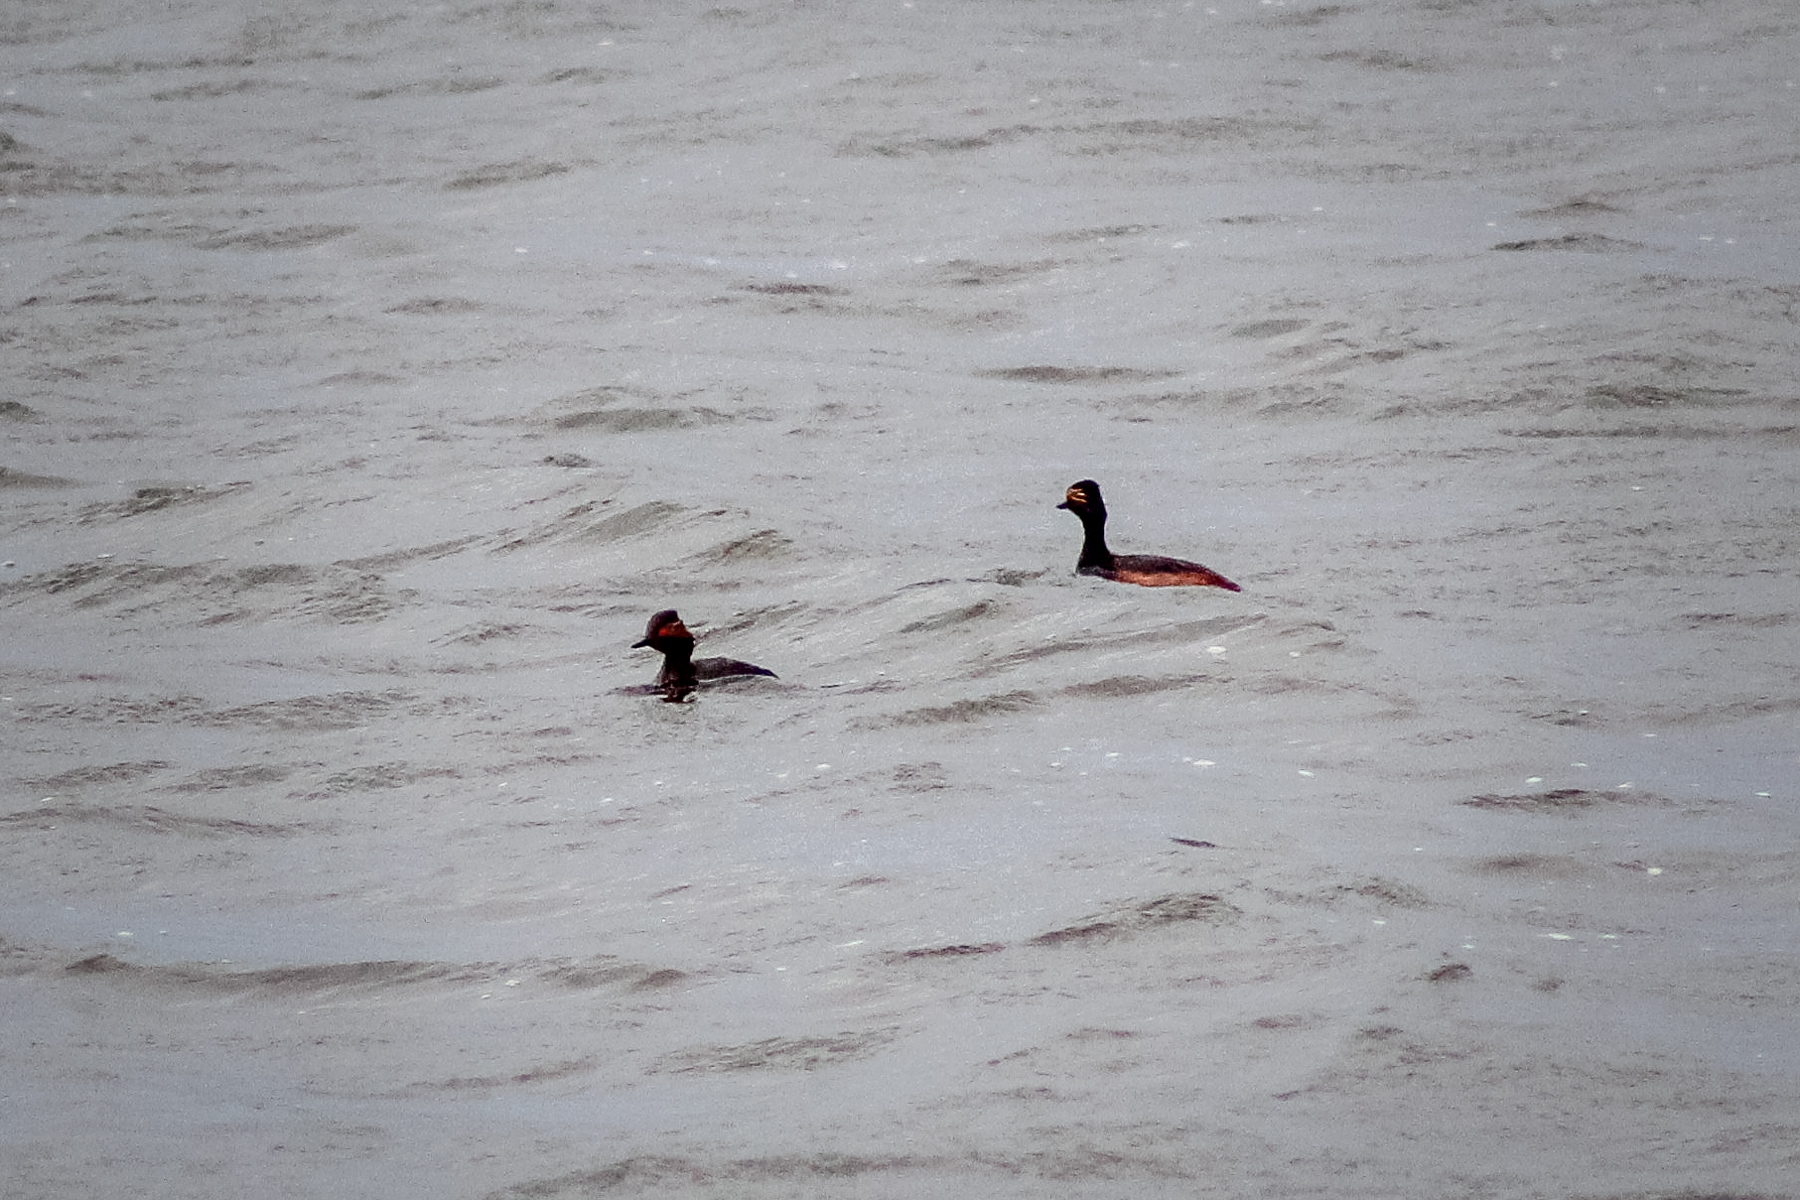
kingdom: Animalia
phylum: Chordata
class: Aves
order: Podicipediformes
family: Podicipedidae
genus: Podiceps
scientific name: Podiceps nigricollis
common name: Black-necked grebe
